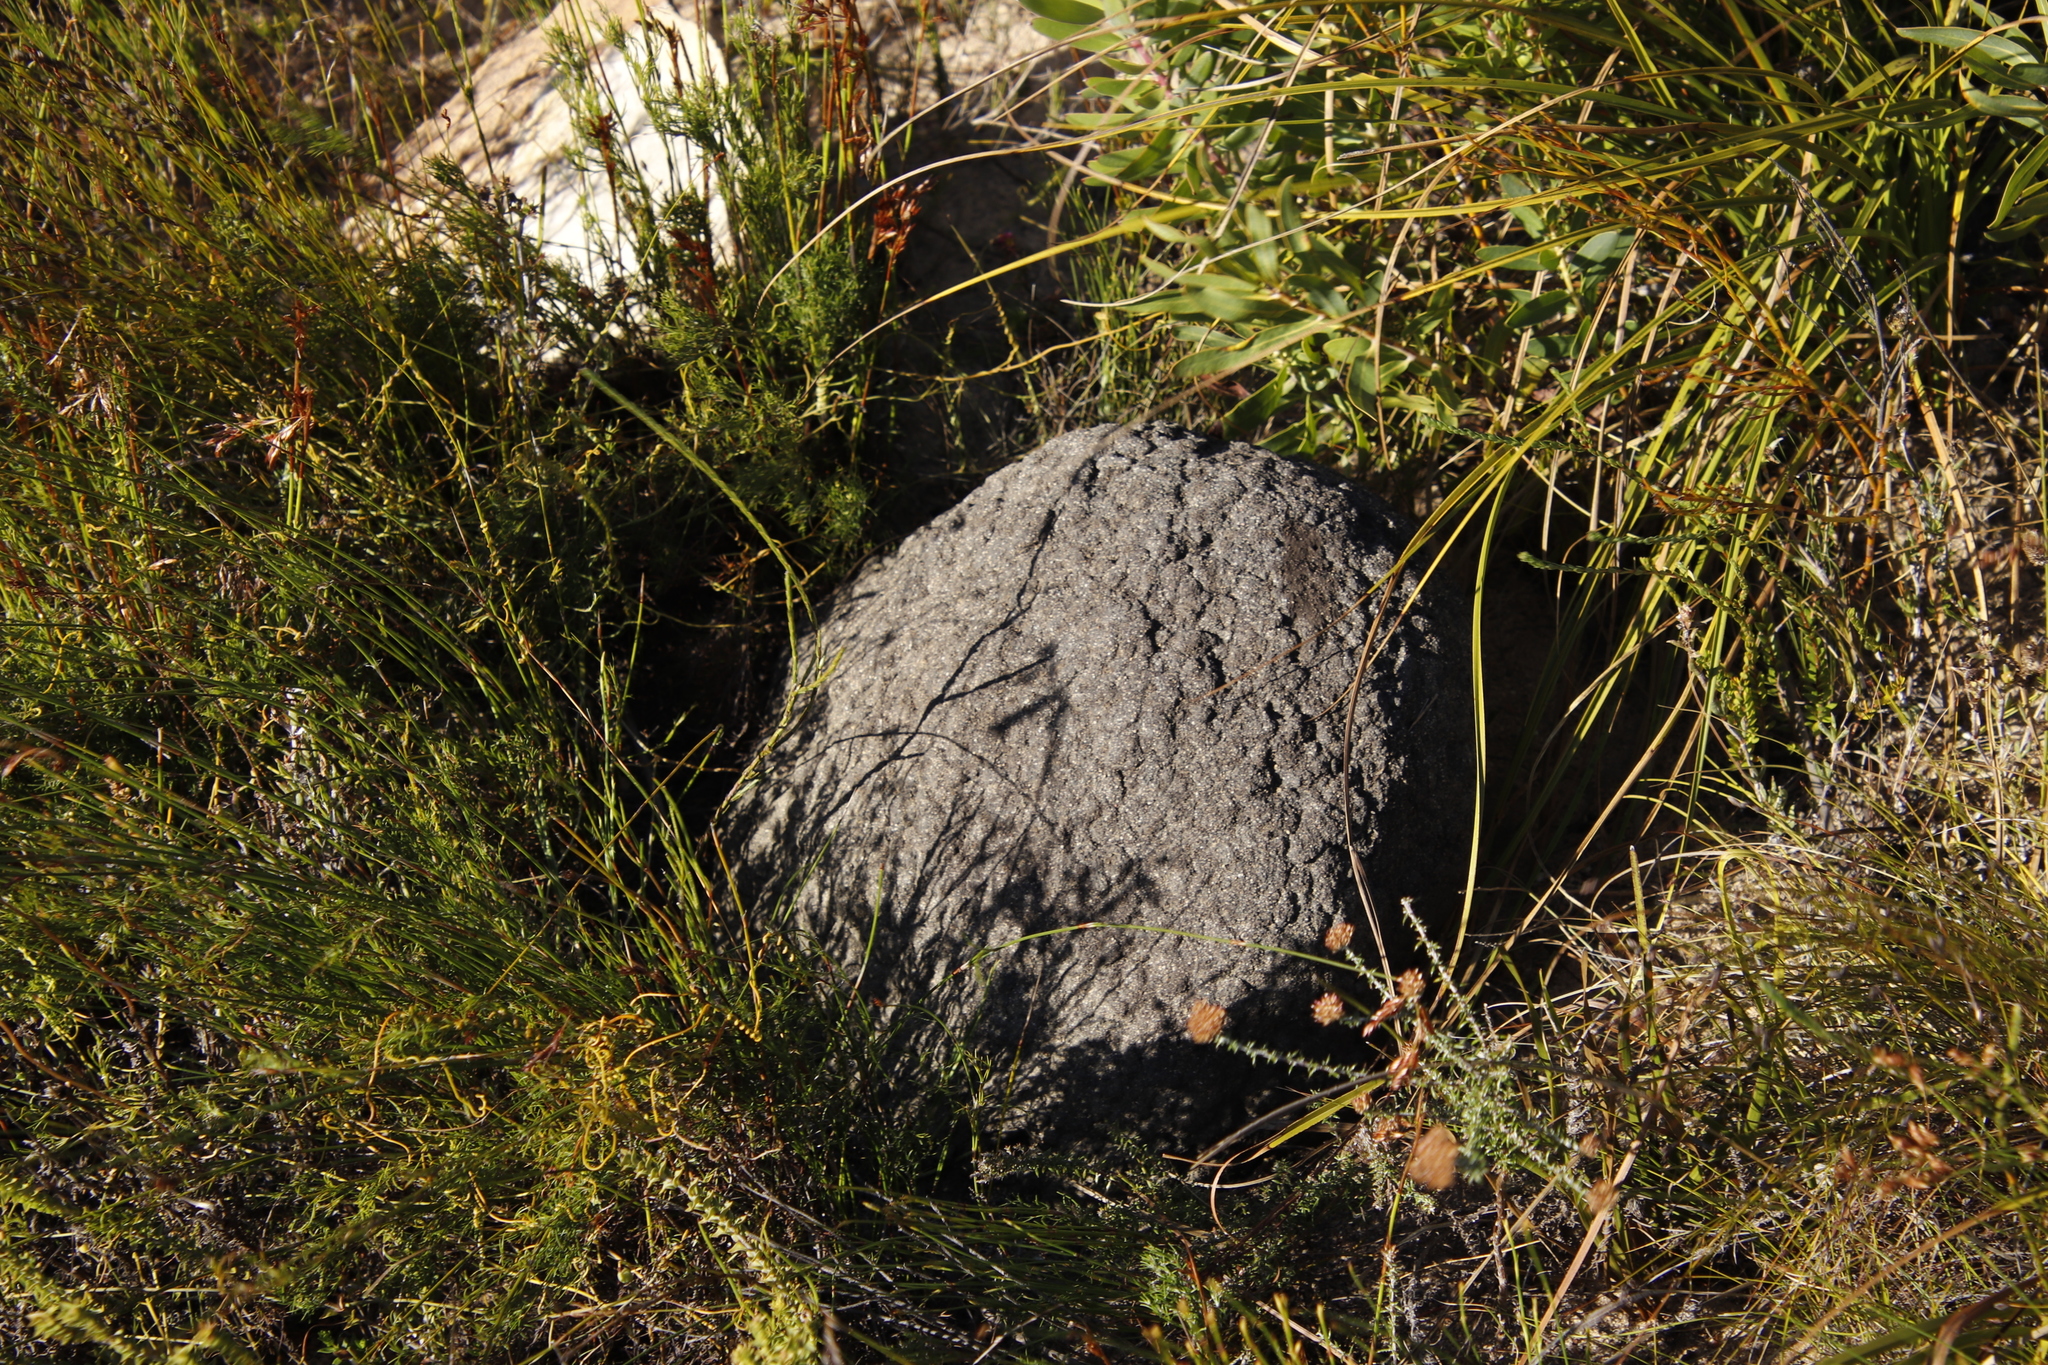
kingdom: Animalia
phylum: Arthropoda
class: Insecta
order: Blattodea
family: Termitidae
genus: Amitermes
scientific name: Amitermes hastatus
